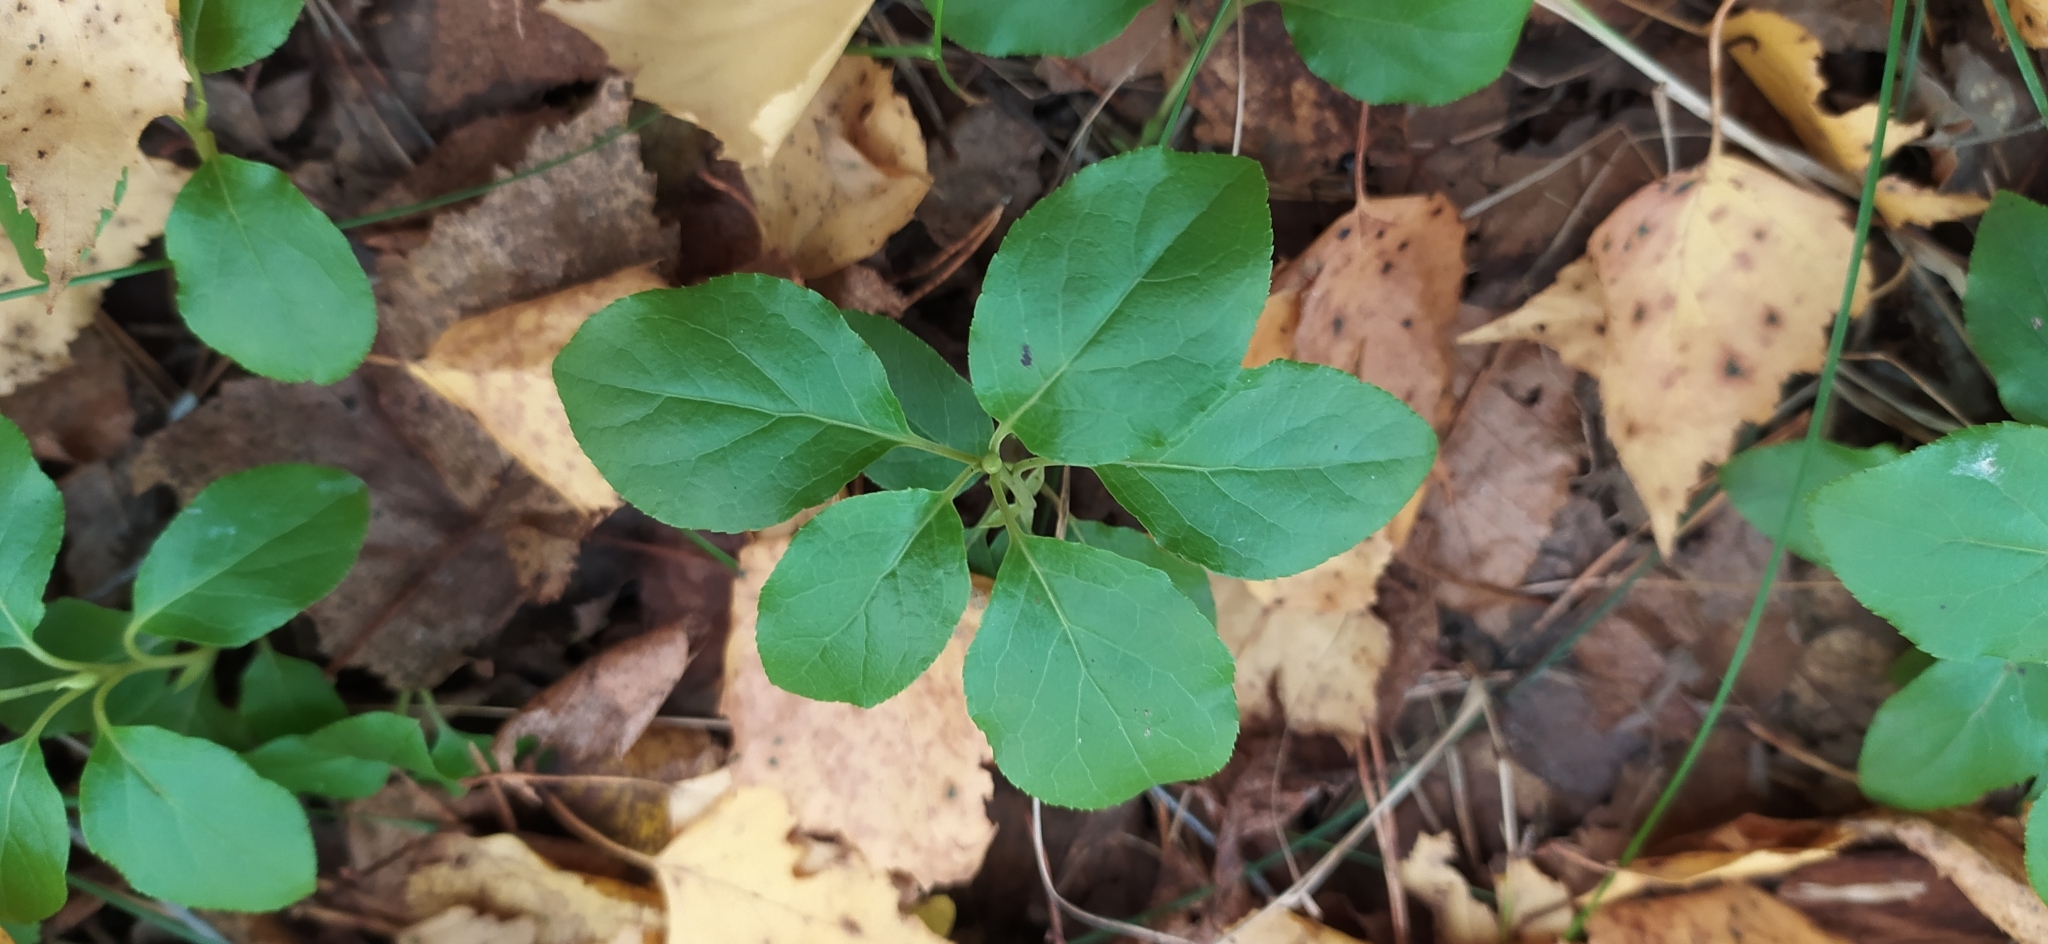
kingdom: Plantae
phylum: Tracheophyta
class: Magnoliopsida
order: Ericales
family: Ericaceae
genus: Orthilia
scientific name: Orthilia secunda
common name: One-sided orthilia
